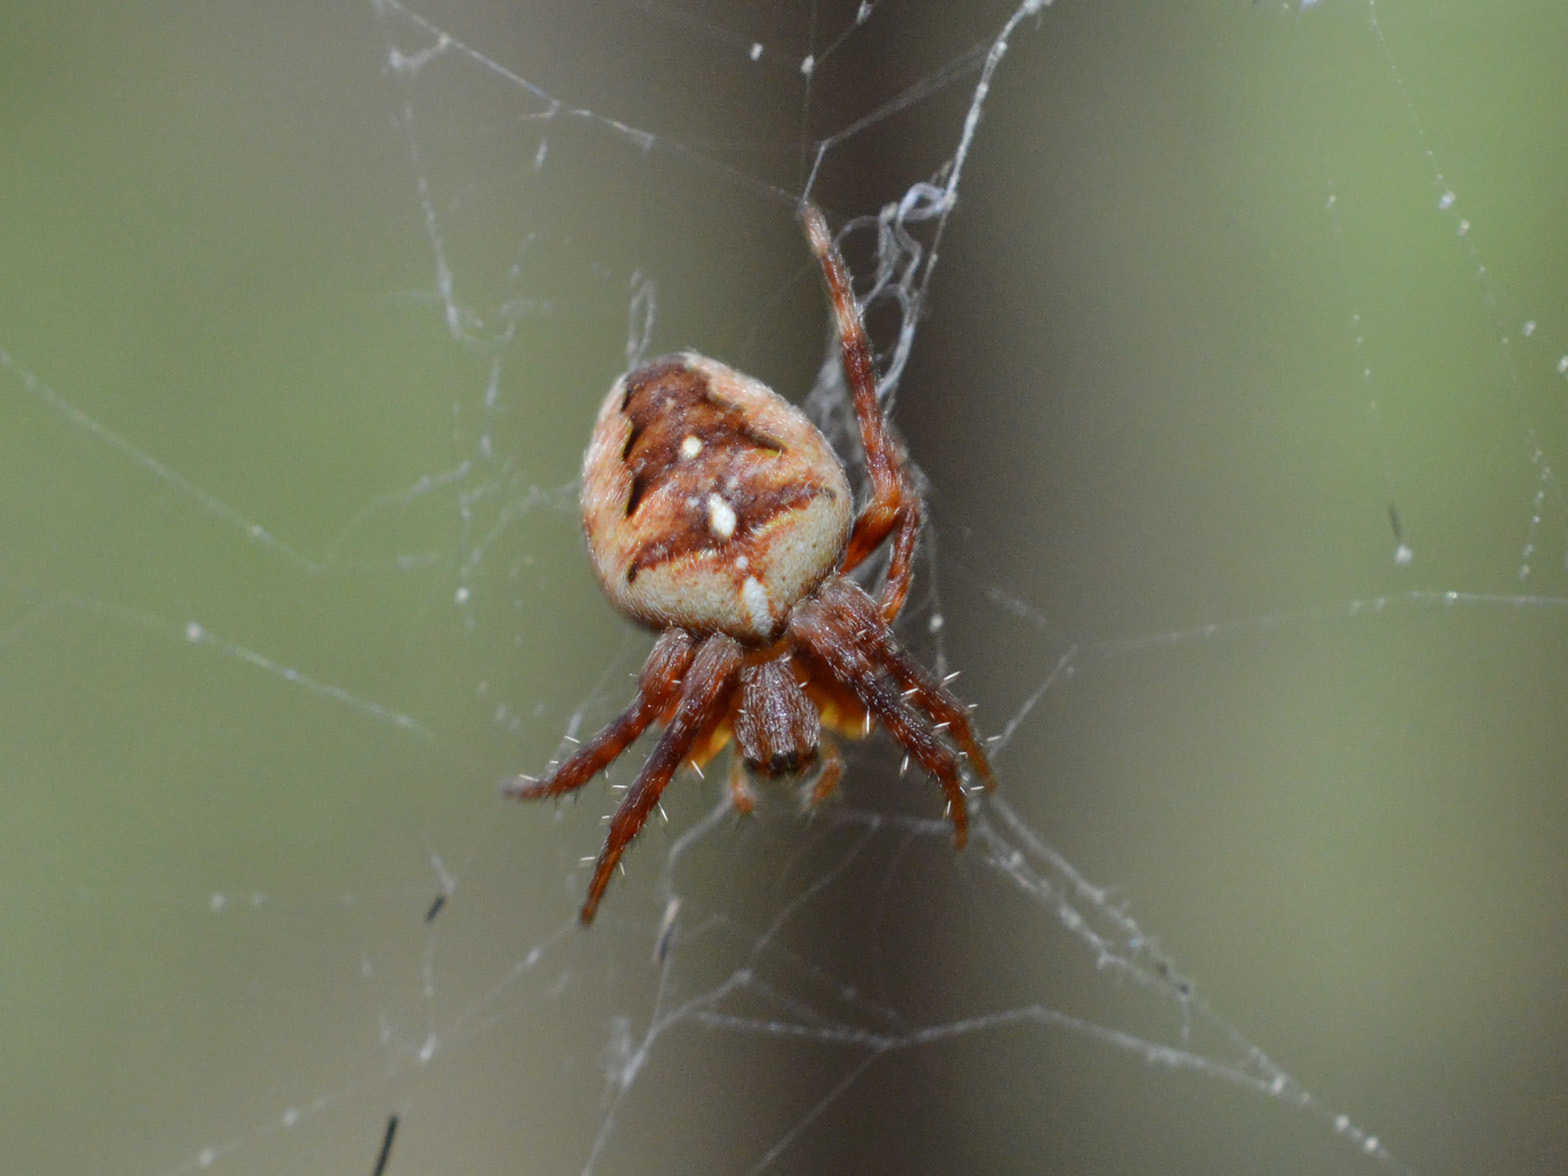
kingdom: Animalia
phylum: Arthropoda
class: Arachnida
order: Araneae
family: Araneidae
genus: Araneus
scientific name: Araneus diadematus
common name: Cross orbweaver
